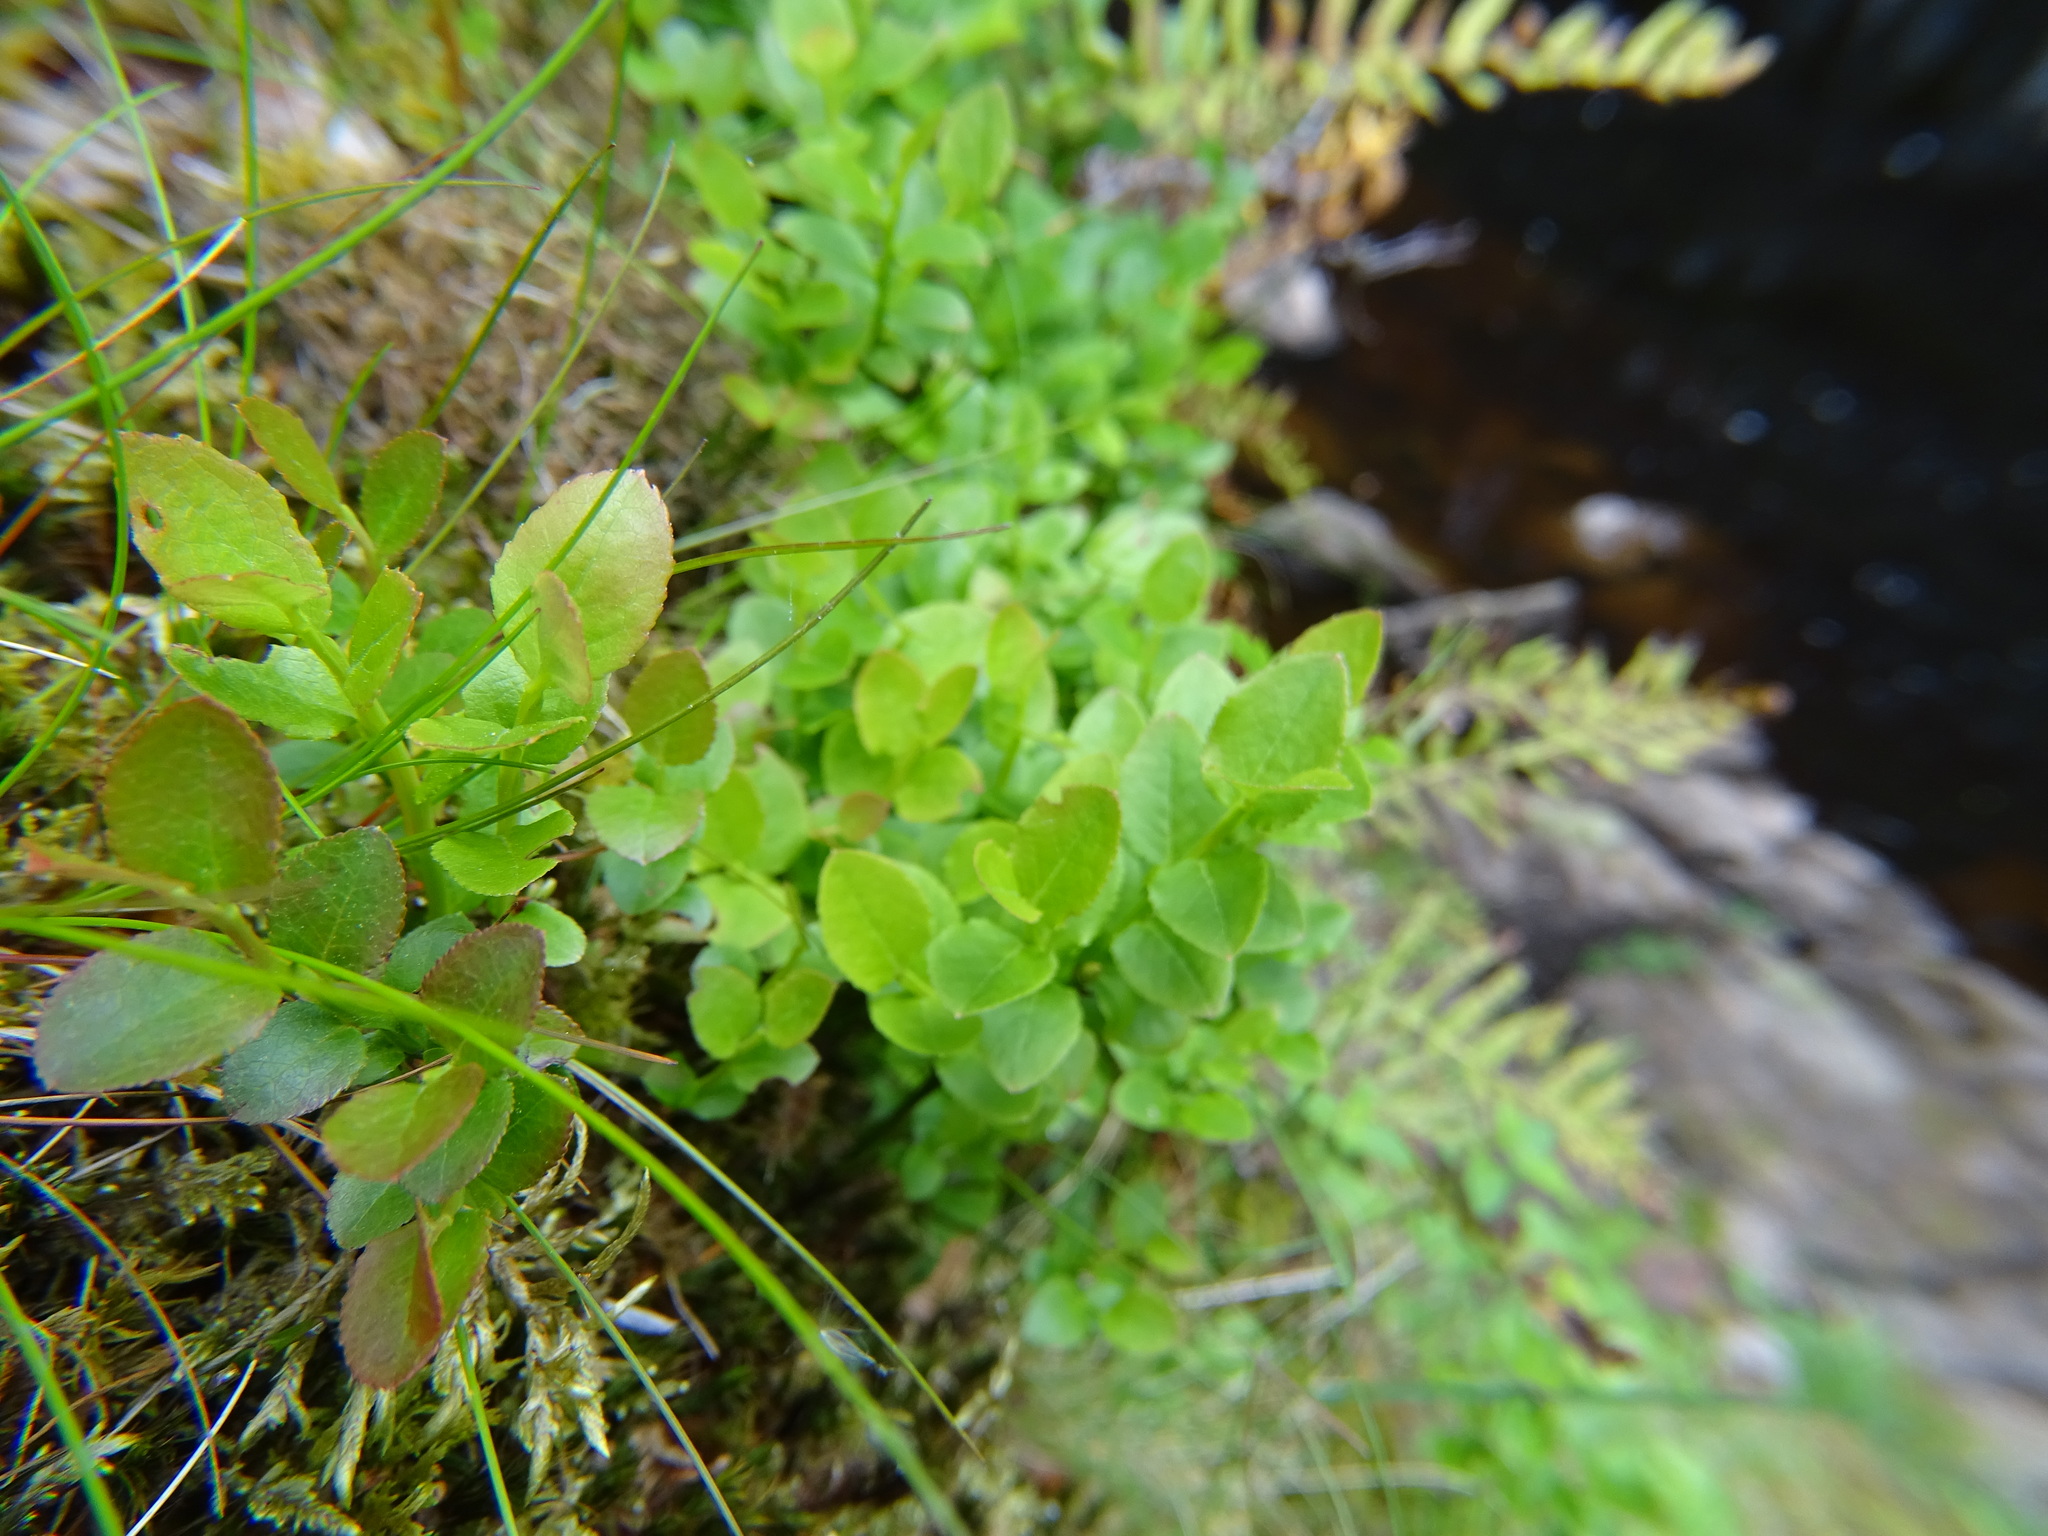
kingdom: Plantae
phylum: Tracheophyta
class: Magnoliopsida
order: Ericales
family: Ericaceae
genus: Vaccinium
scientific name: Vaccinium myrtillus
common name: Bilberry
